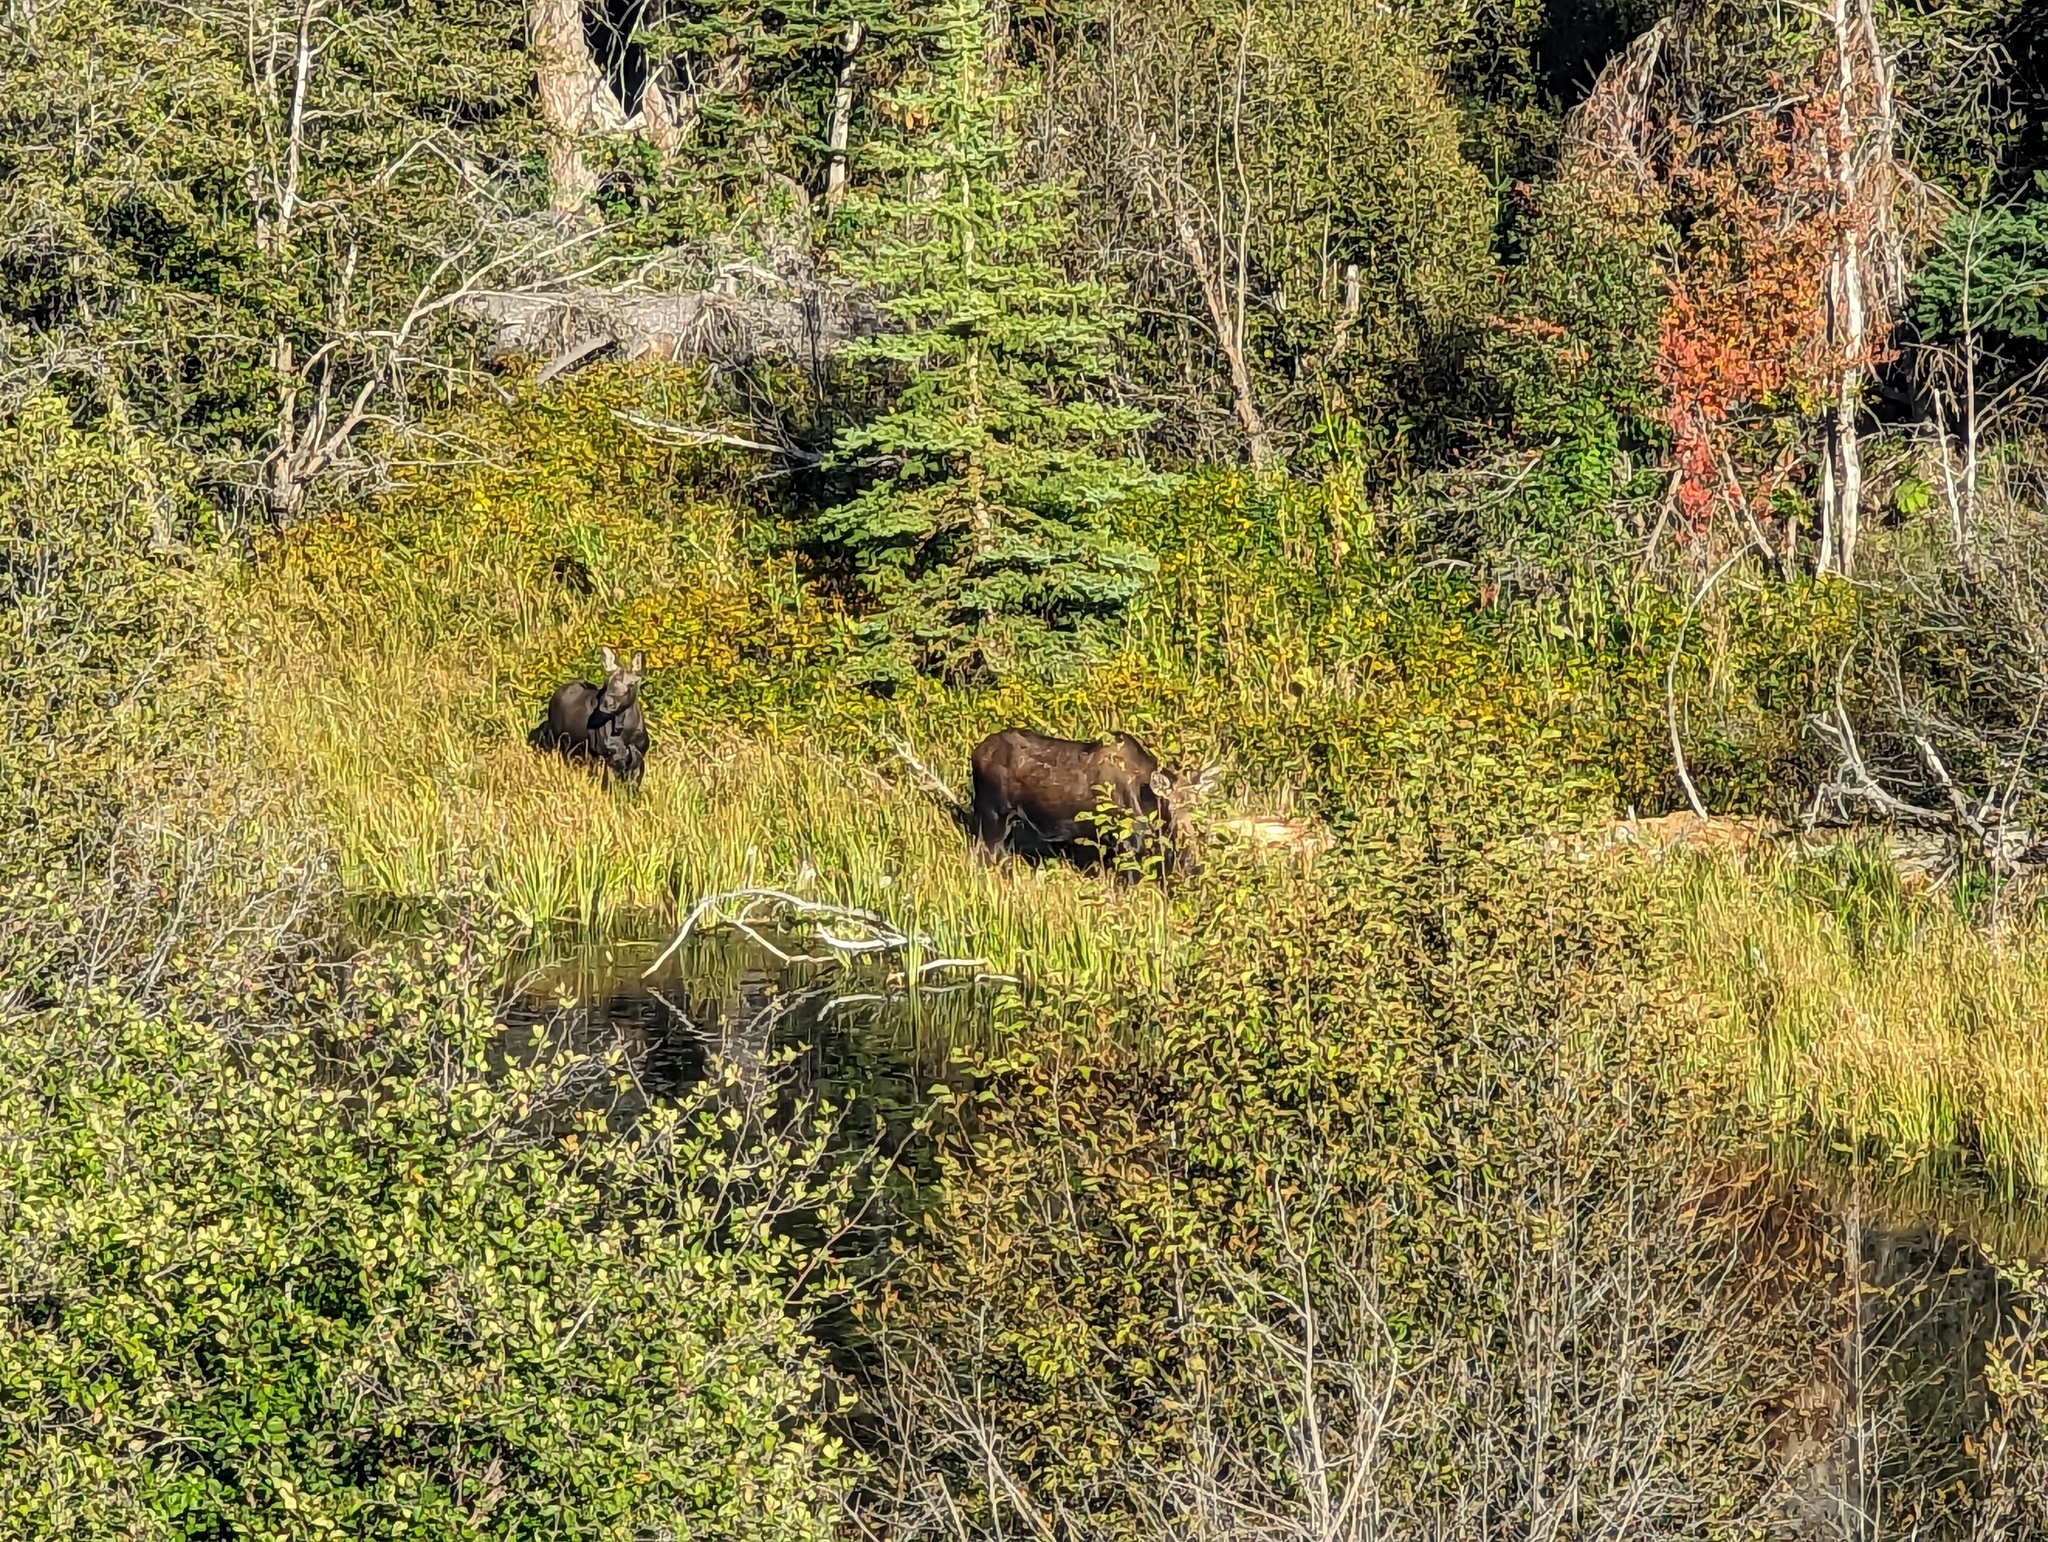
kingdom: Animalia
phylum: Chordata
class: Mammalia
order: Artiodactyla
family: Cervidae
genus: Alces
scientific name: Alces americanus
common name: Moose
